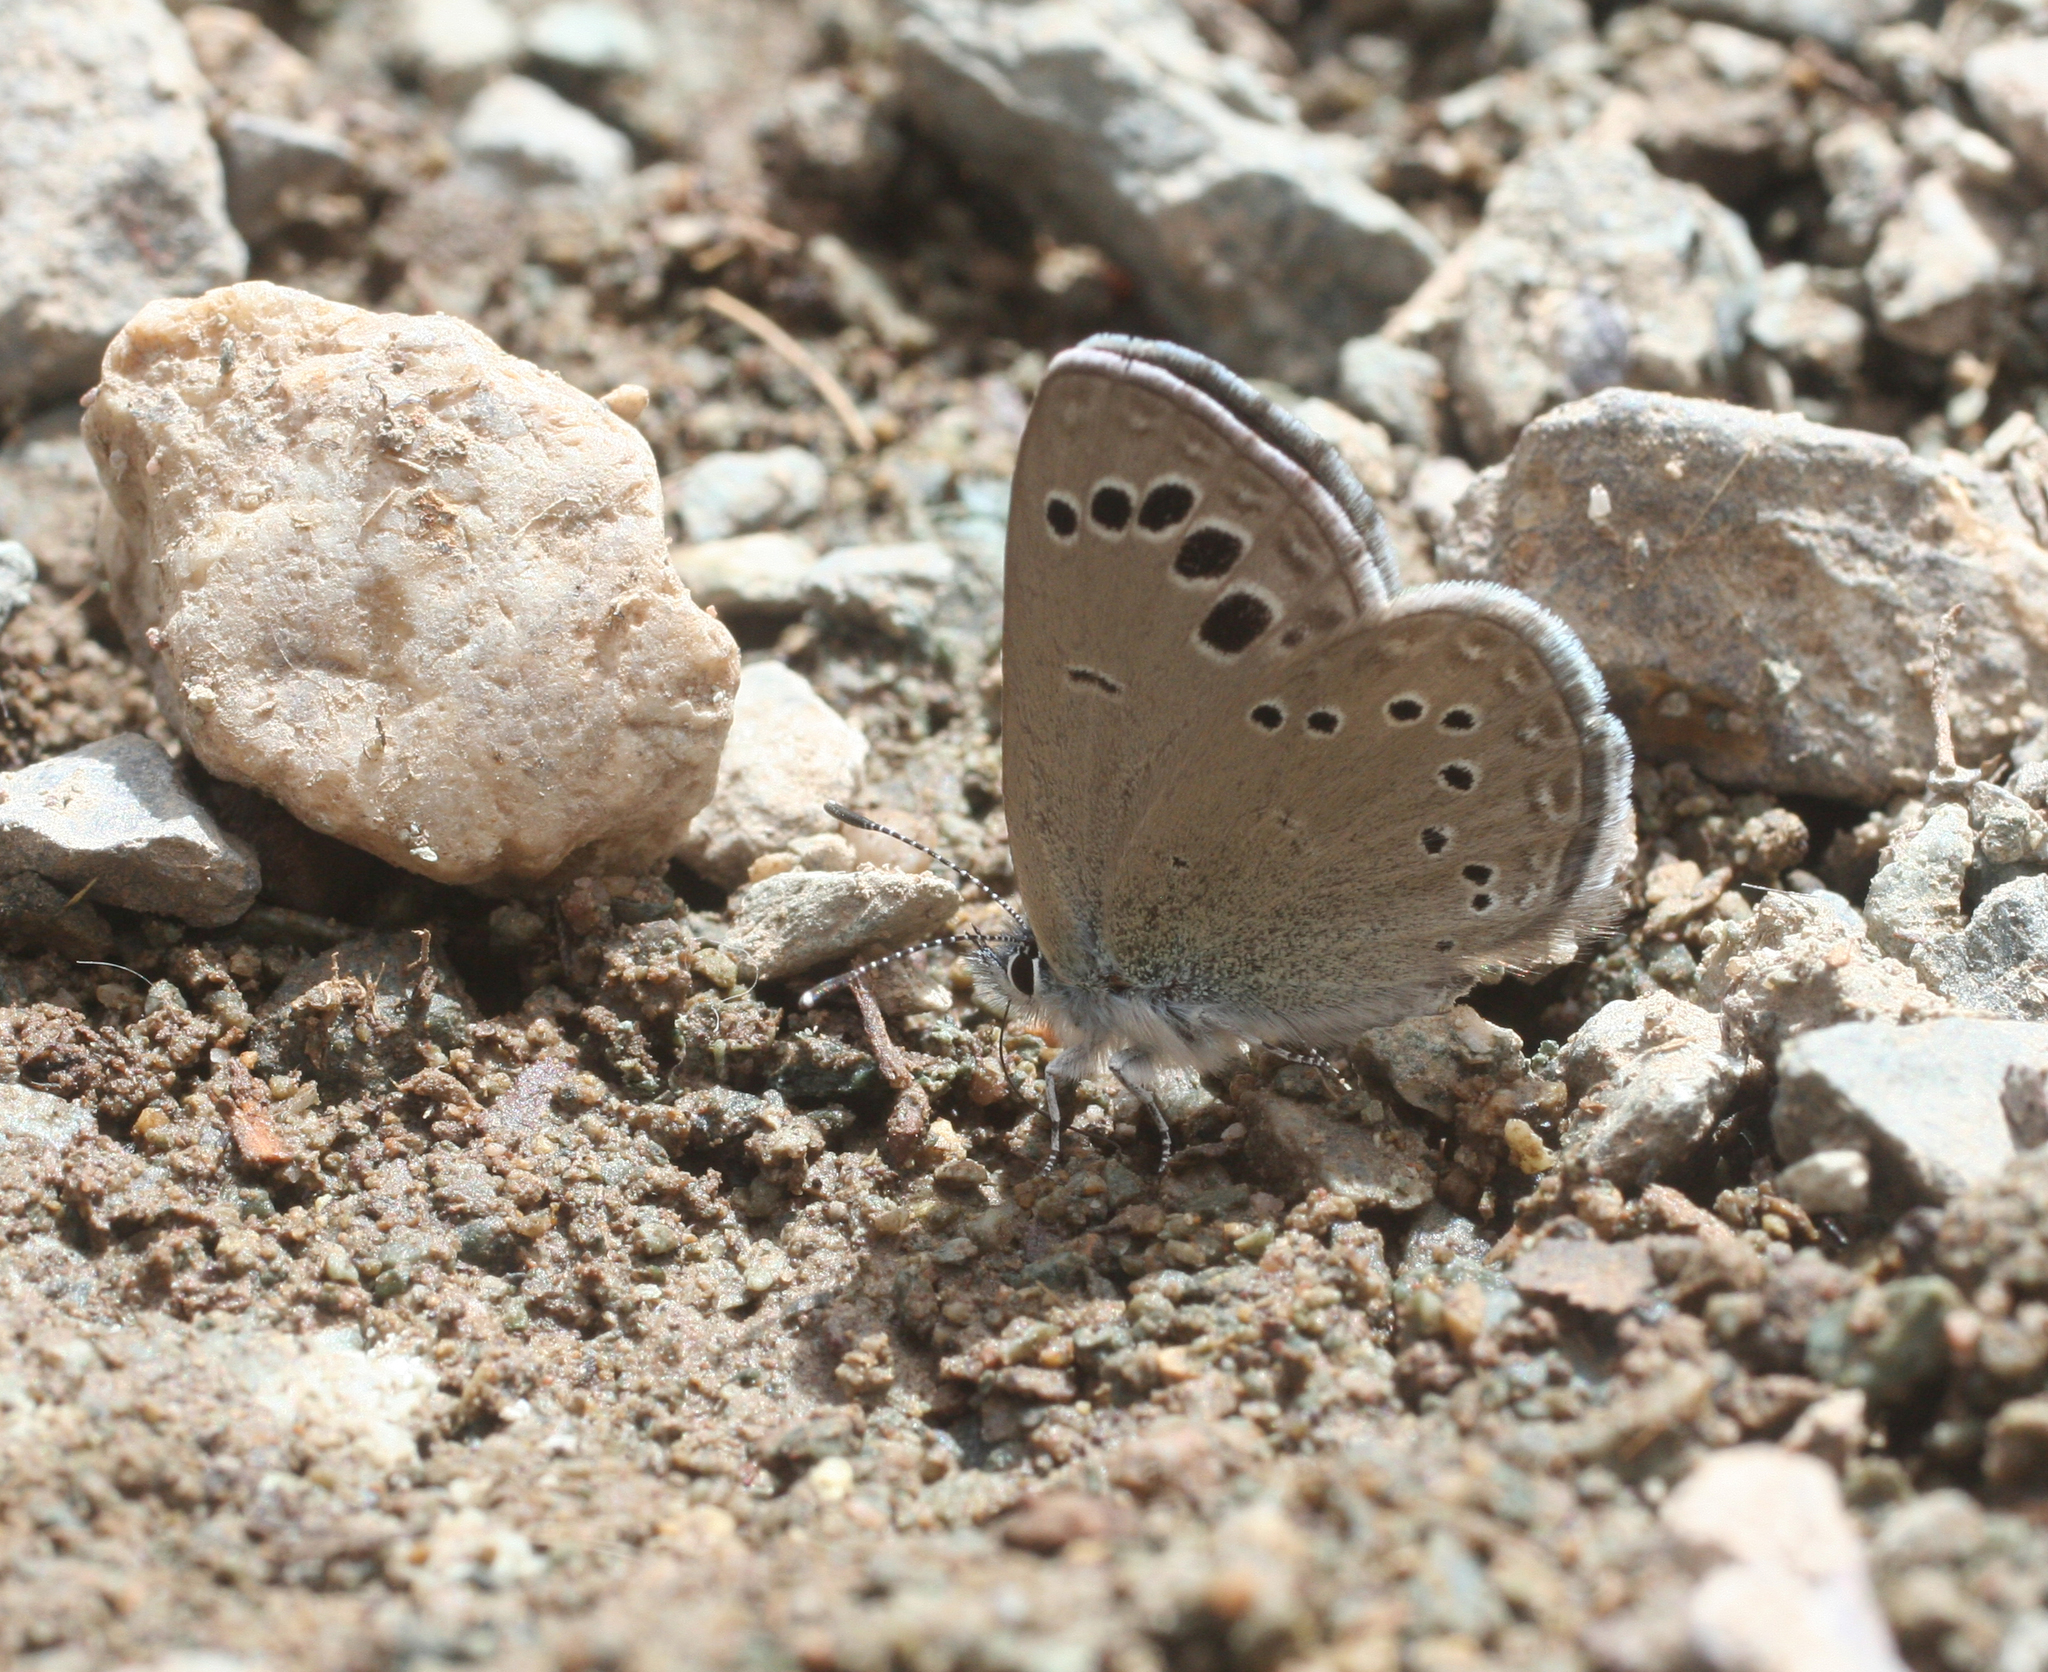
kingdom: Animalia
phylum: Arthropoda
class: Insecta
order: Lepidoptera
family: Lycaenidae
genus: Glaucopsyche
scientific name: Glaucopsyche melanops
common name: Black-eyed blue
